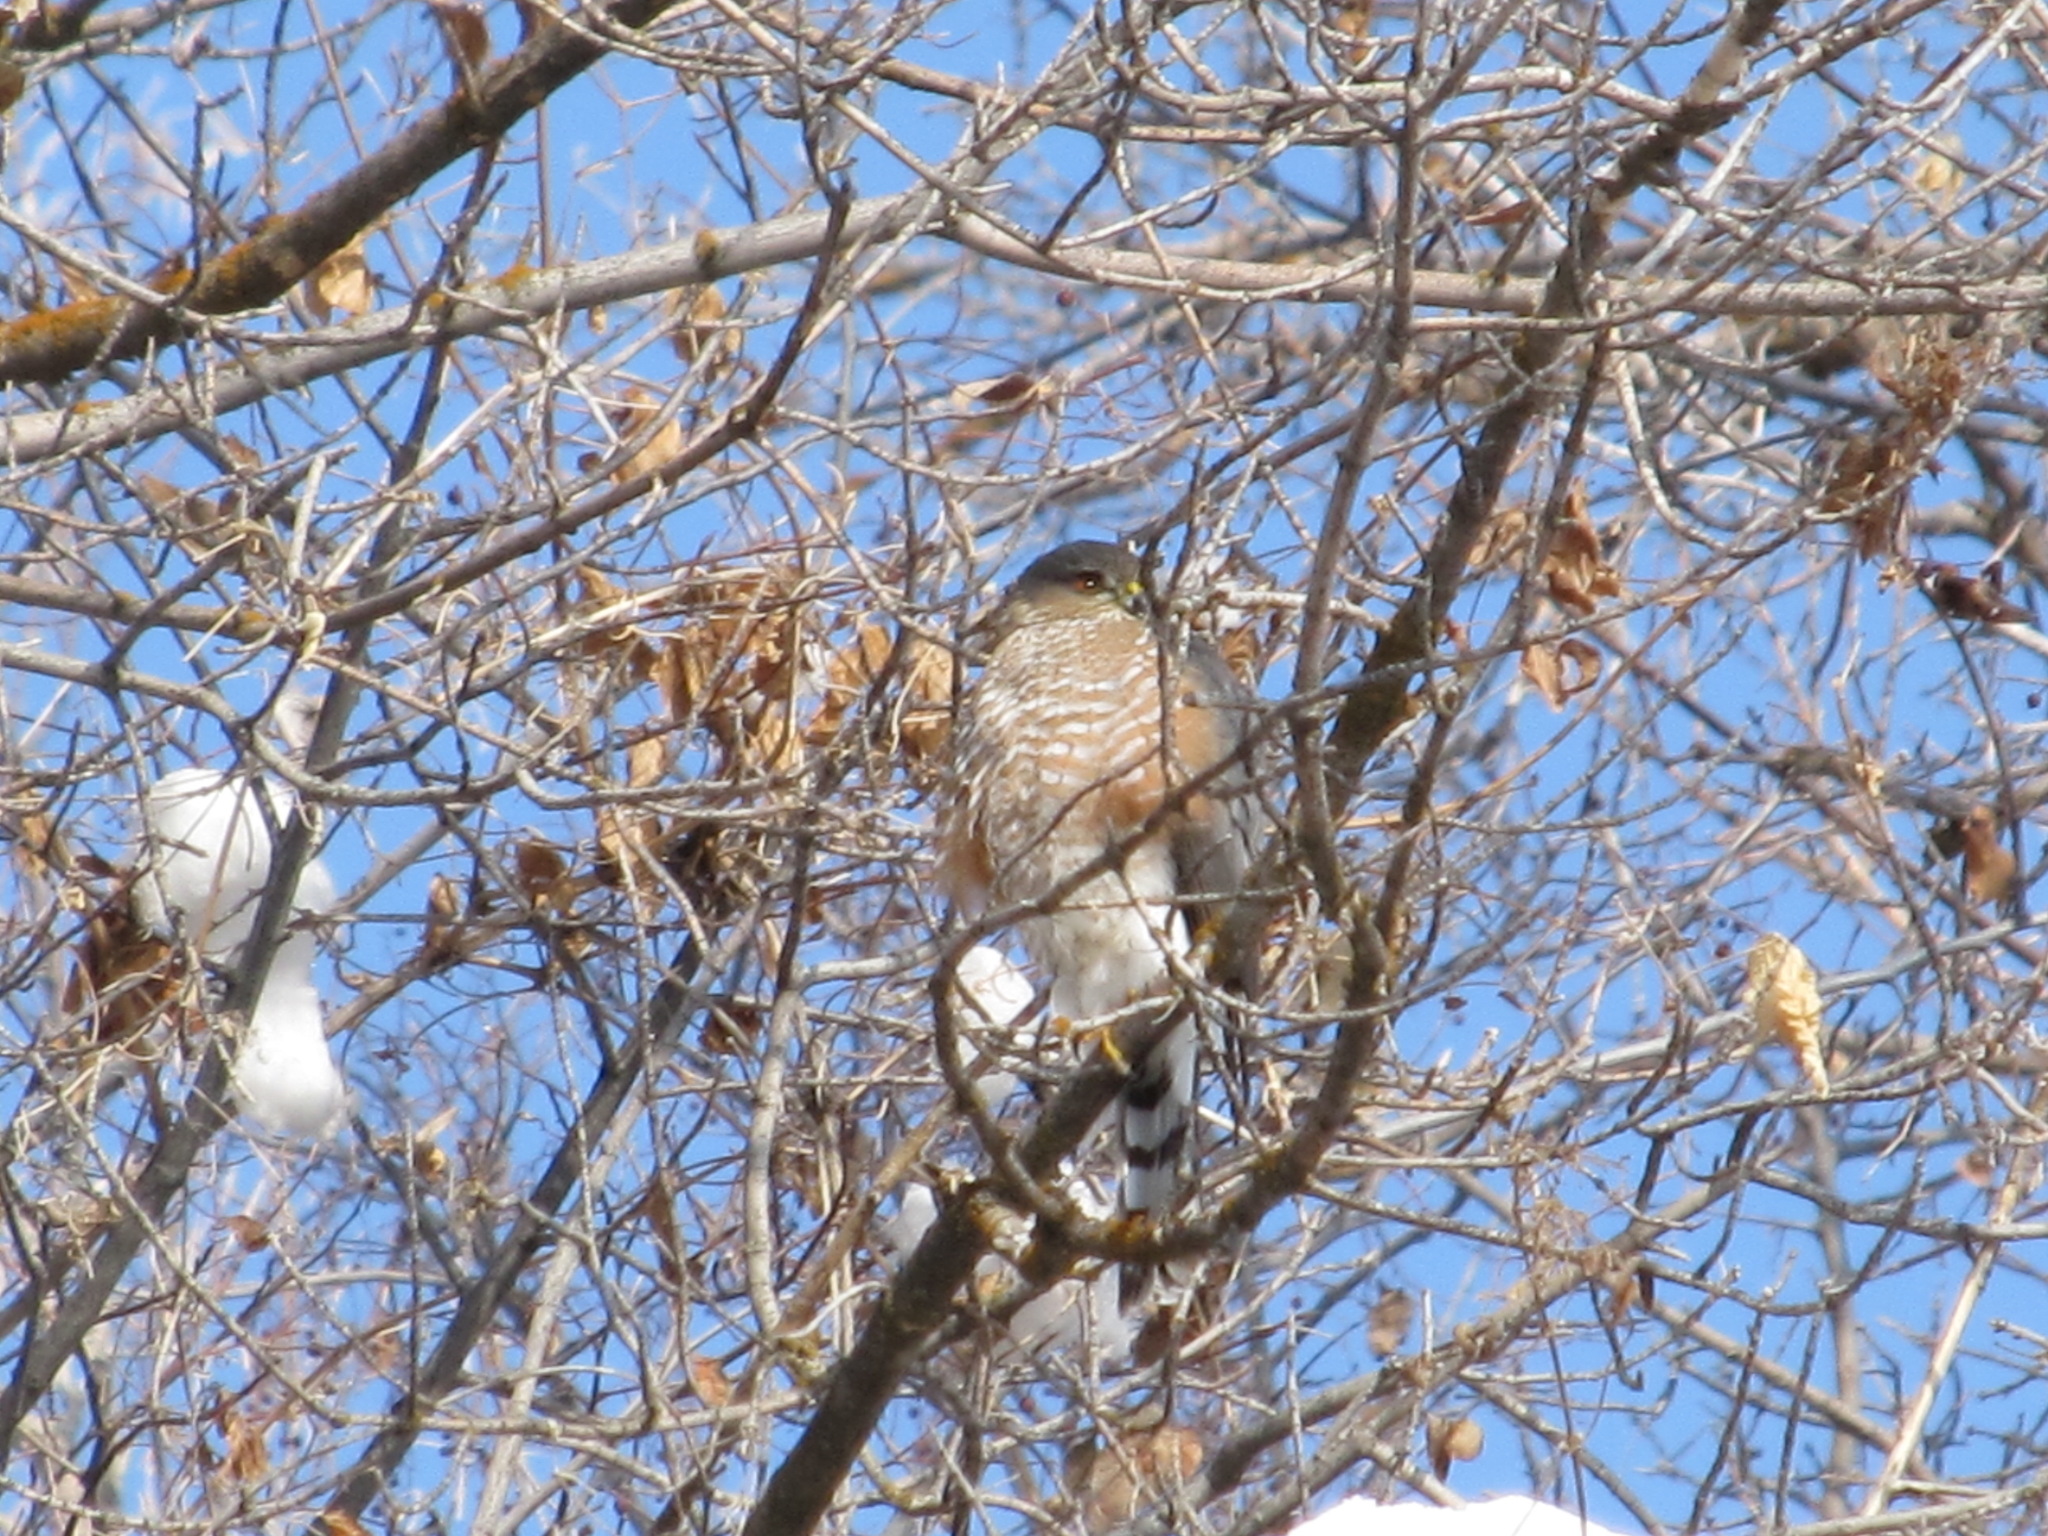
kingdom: Animalia
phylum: Chordata
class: Aves
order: Accipitriformes
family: Accipitridae
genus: Accipiter
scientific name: Accipiter striatus
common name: Sharp-shinned hawk
